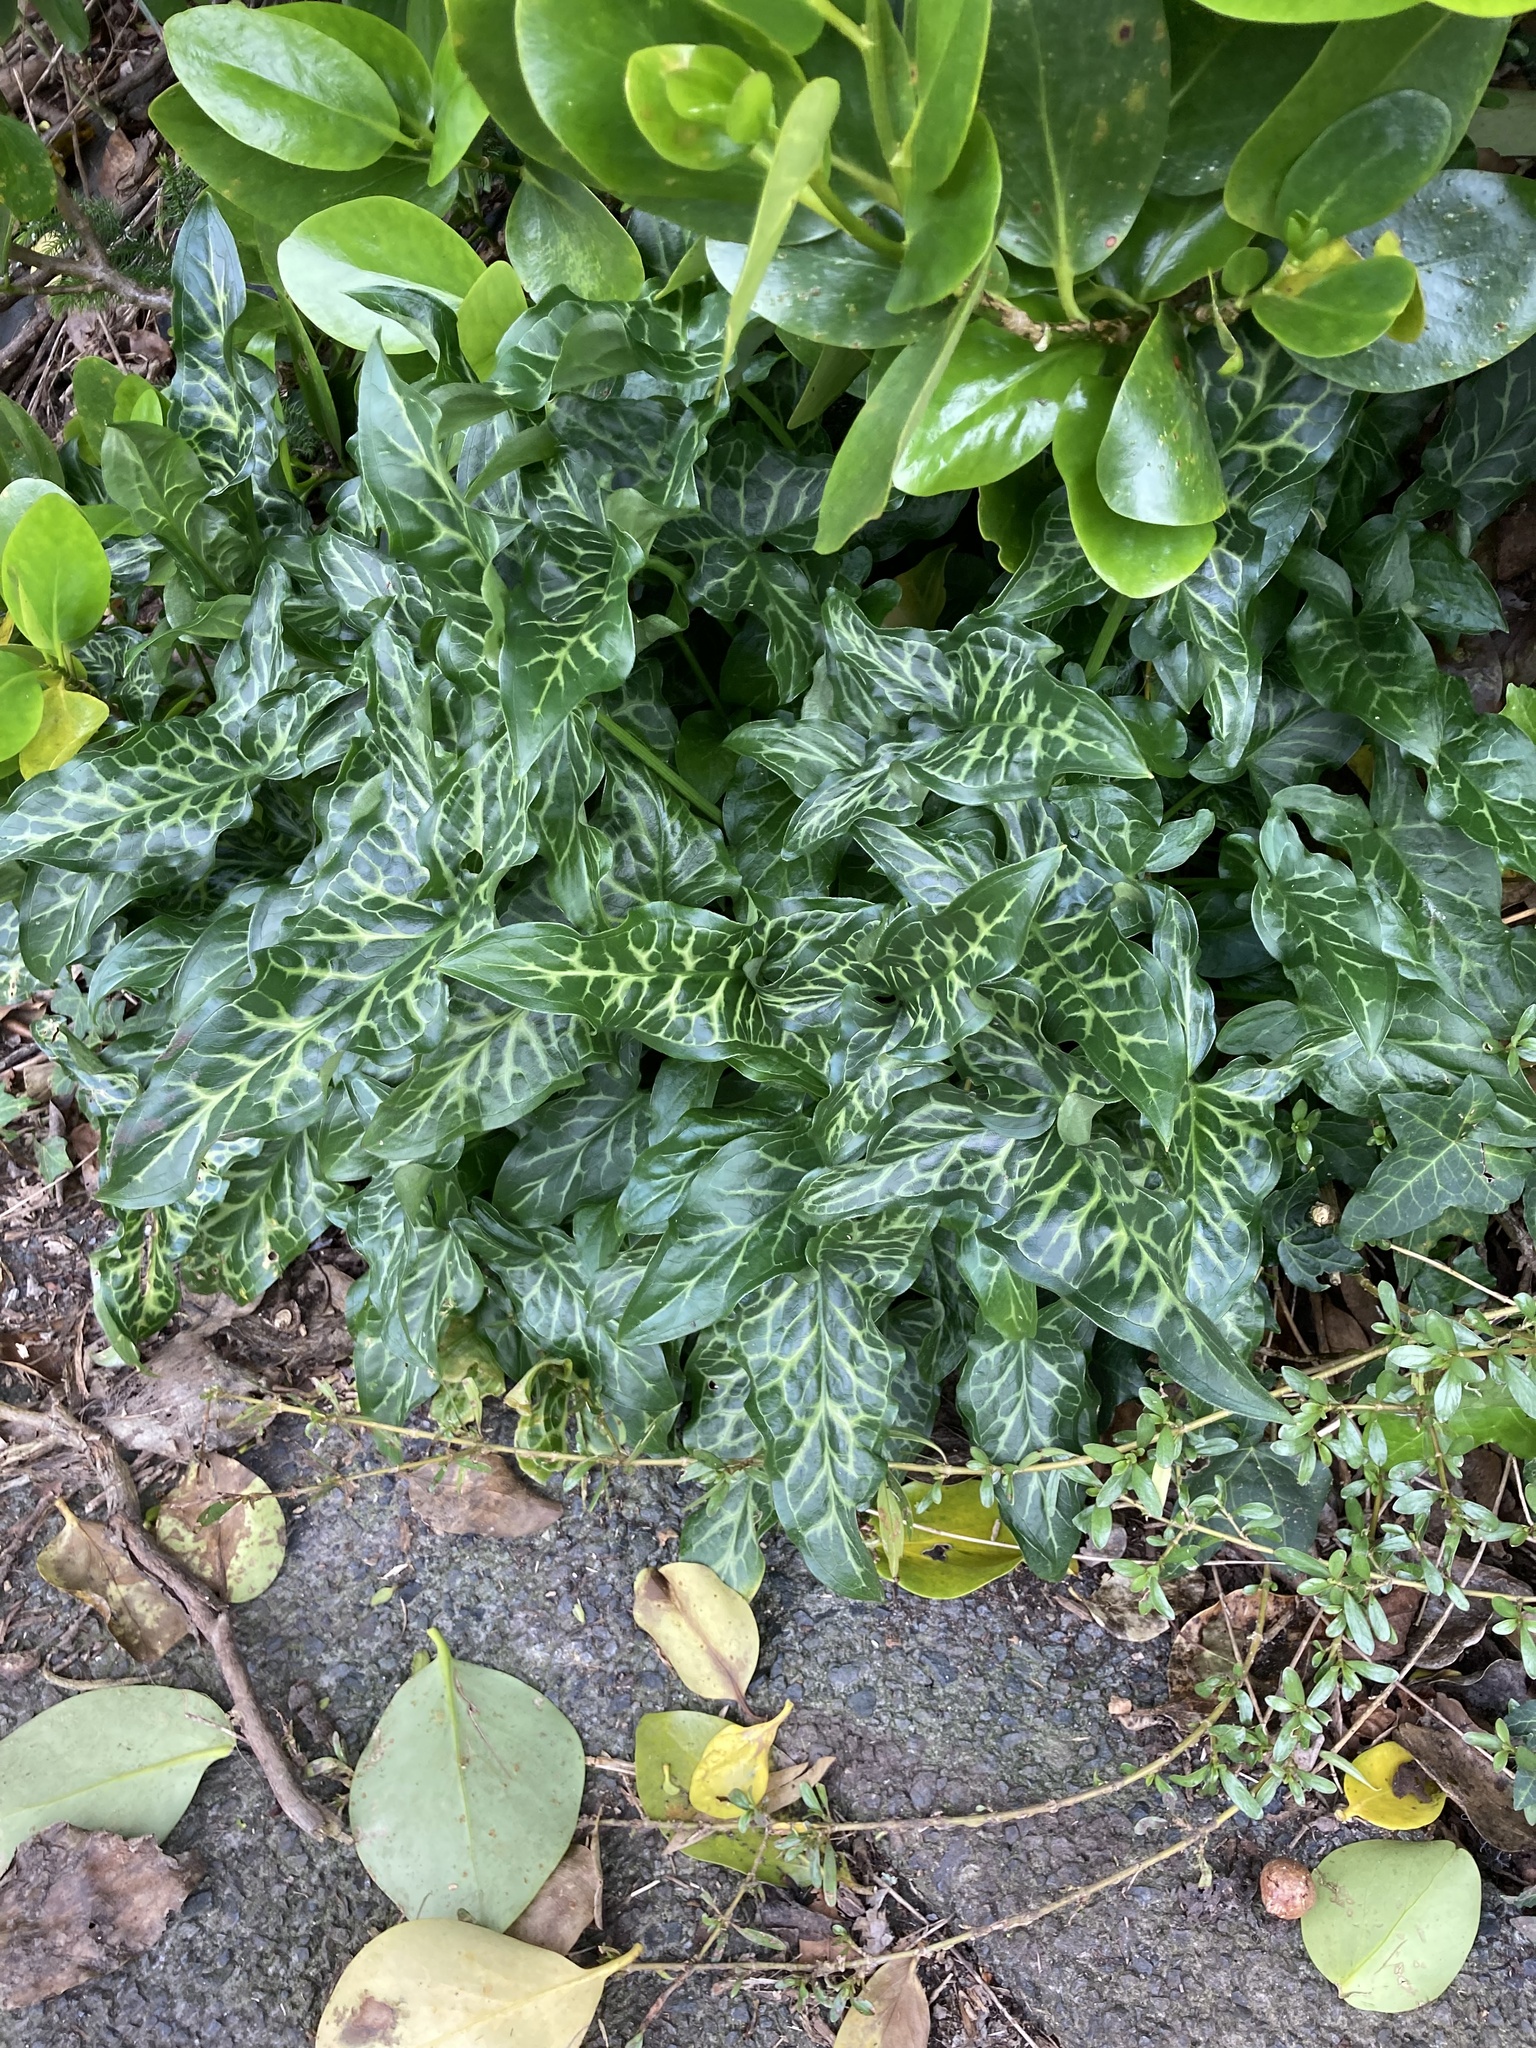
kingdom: Plantae
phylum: Tracheophyta
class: Liliopsida
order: Alismatales
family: Araceae
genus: Arum
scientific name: Arum italicum
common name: Italian lords-and-ladies
